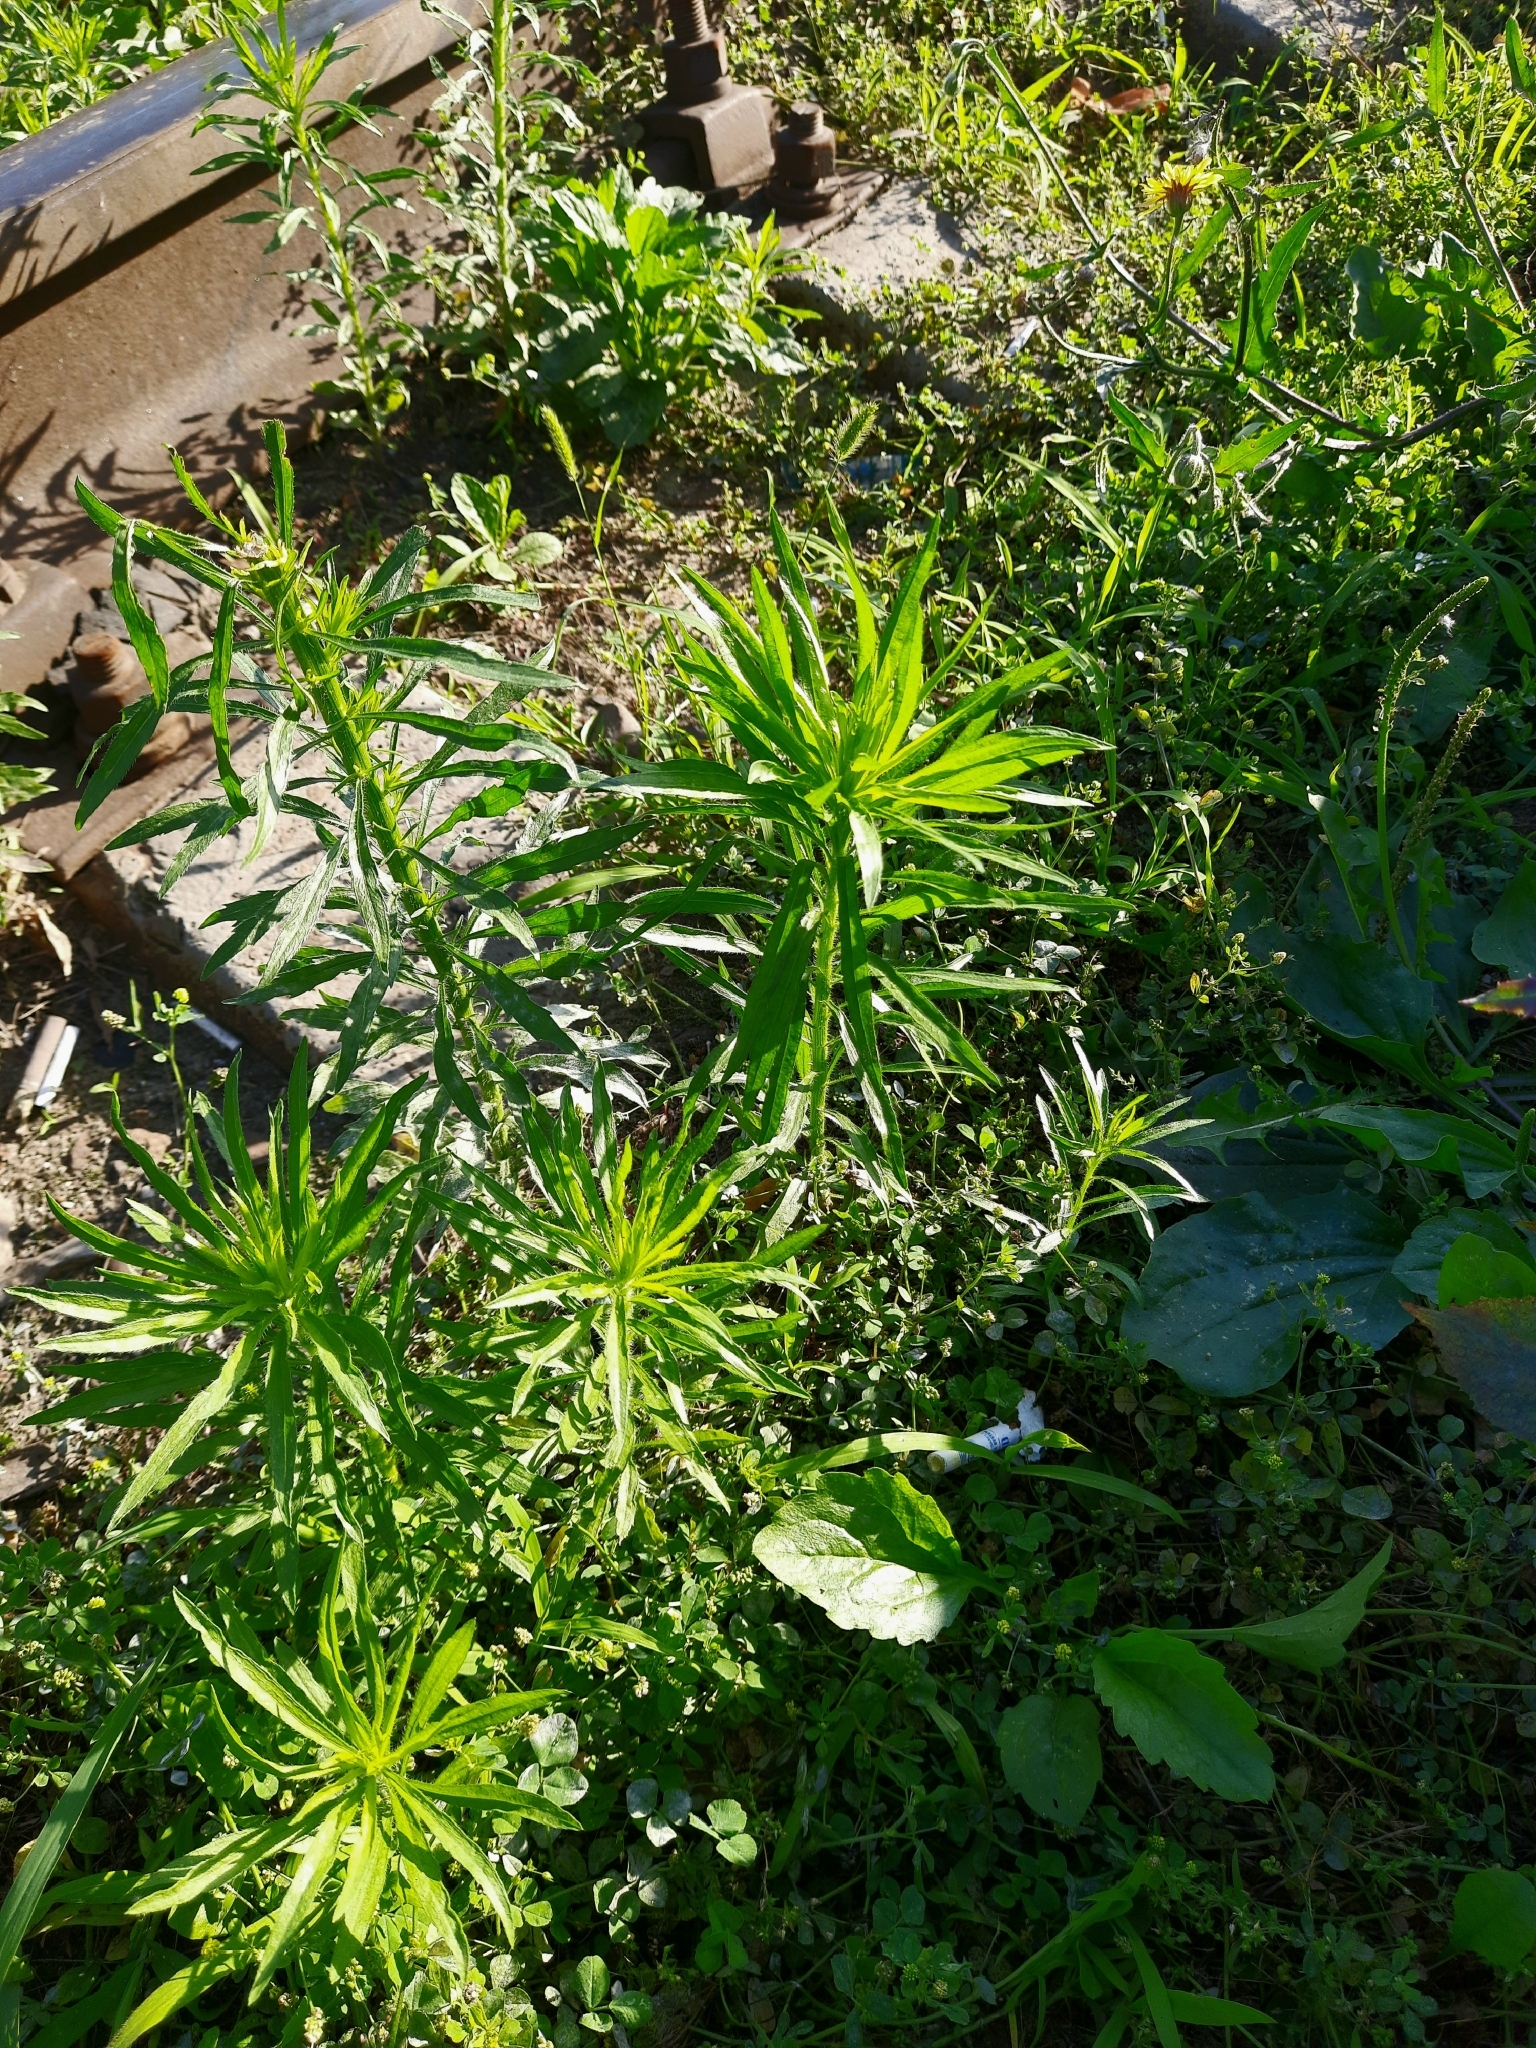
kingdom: Plantae
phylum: Tracheophyta
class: Magnoliopsida
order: Asterales
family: Asteraceae
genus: Erigeron
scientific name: Erigeron canadensis
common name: Canadian fleabane
